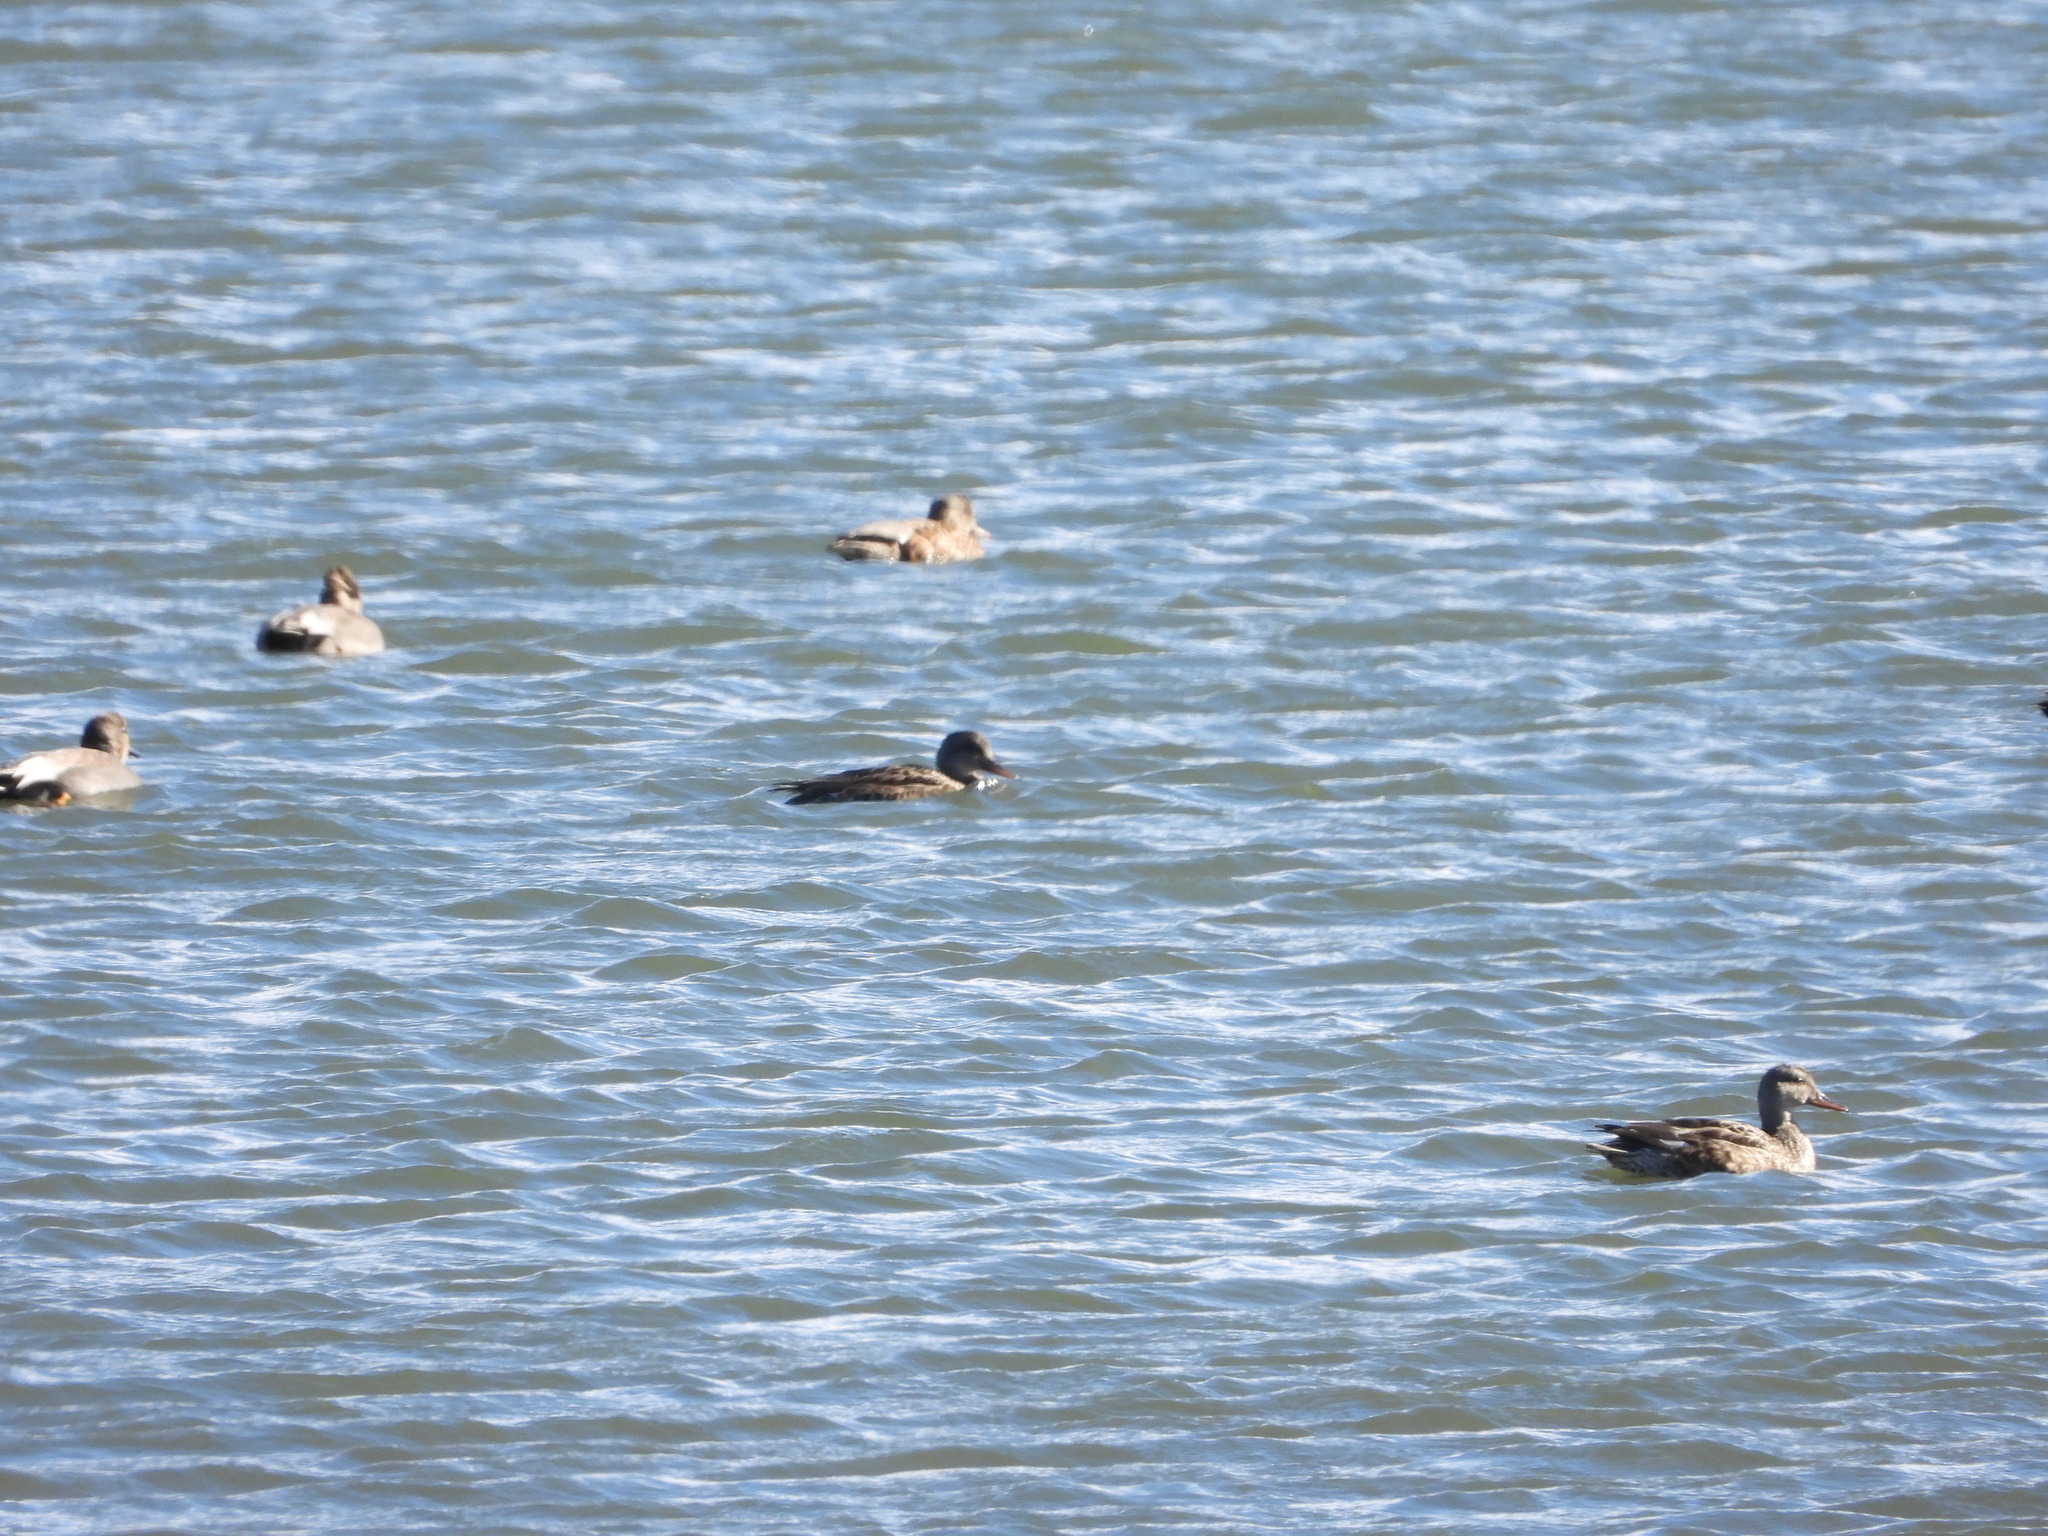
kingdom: Animalia
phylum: Chordata
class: Aves
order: Anseriformes
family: Anatidae
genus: Mareca
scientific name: Mareca strepera
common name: Gadwall
